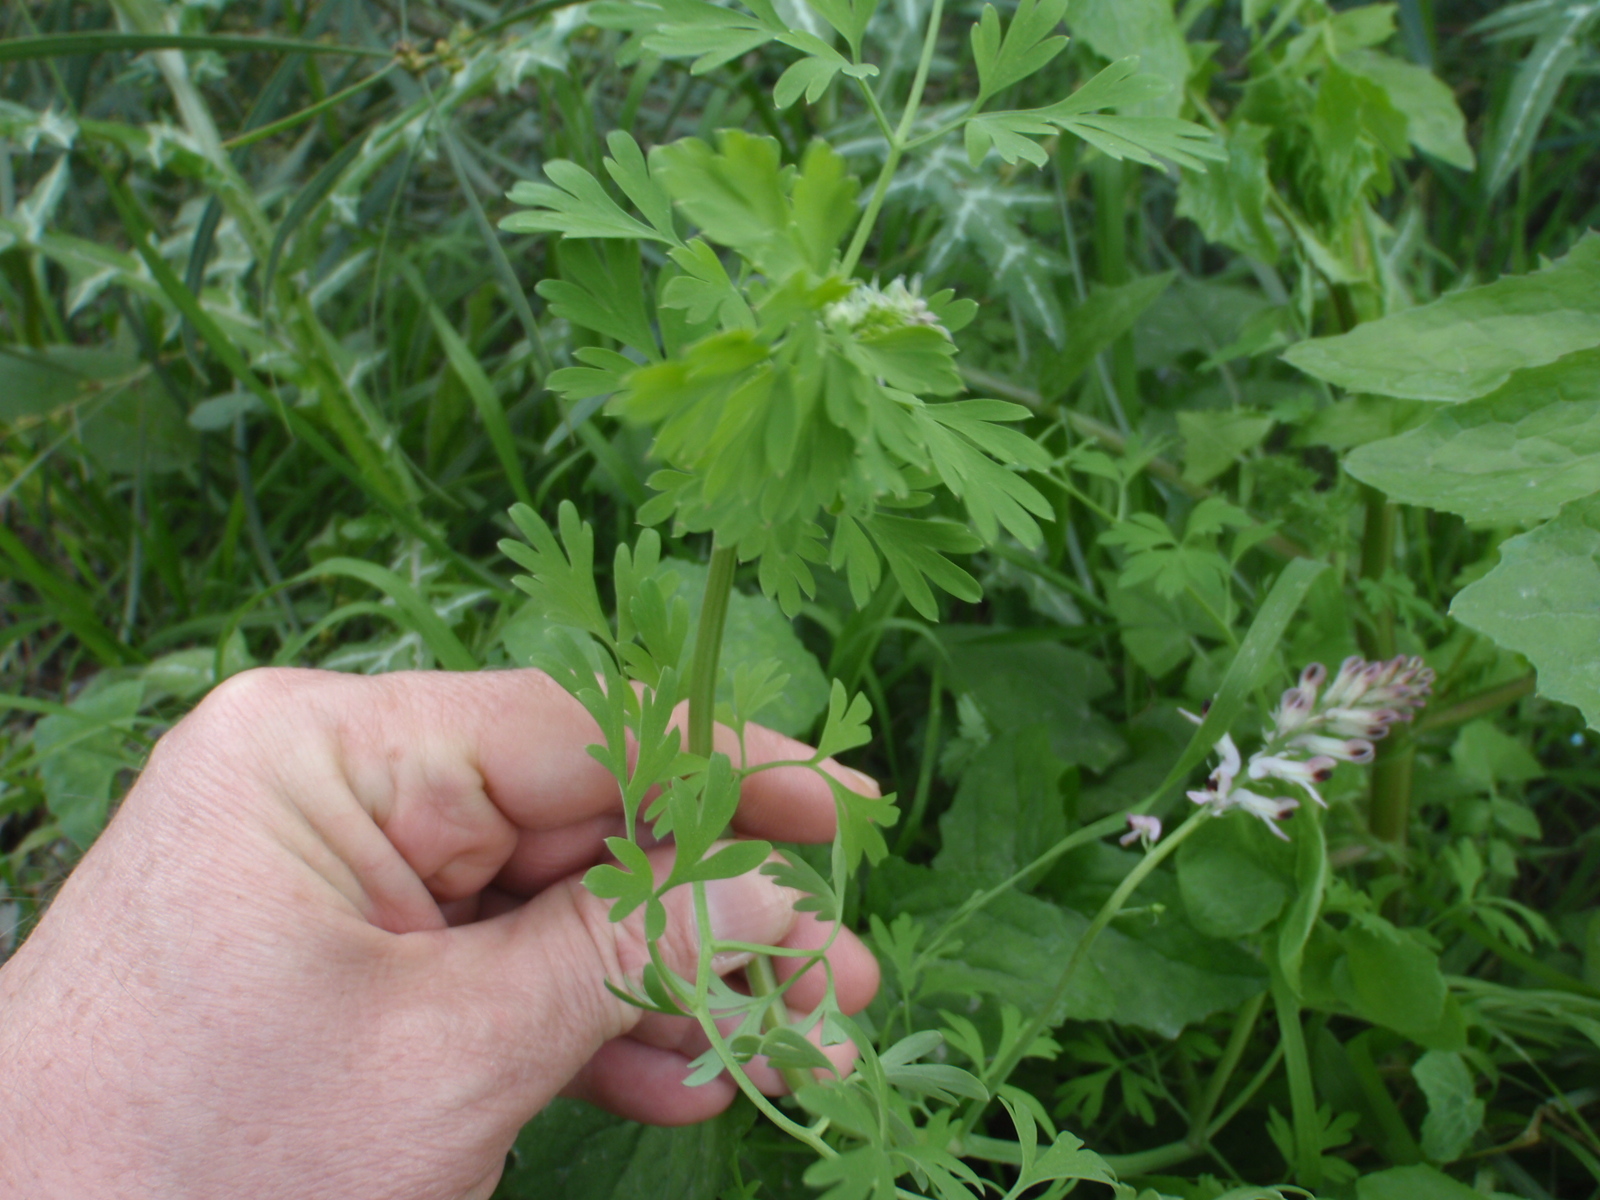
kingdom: Plantae
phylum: Tracheophyta
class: Magnoliopsida
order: Ranunculales
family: Papaveraceae
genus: Fumaria
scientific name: Fumaria agraria
